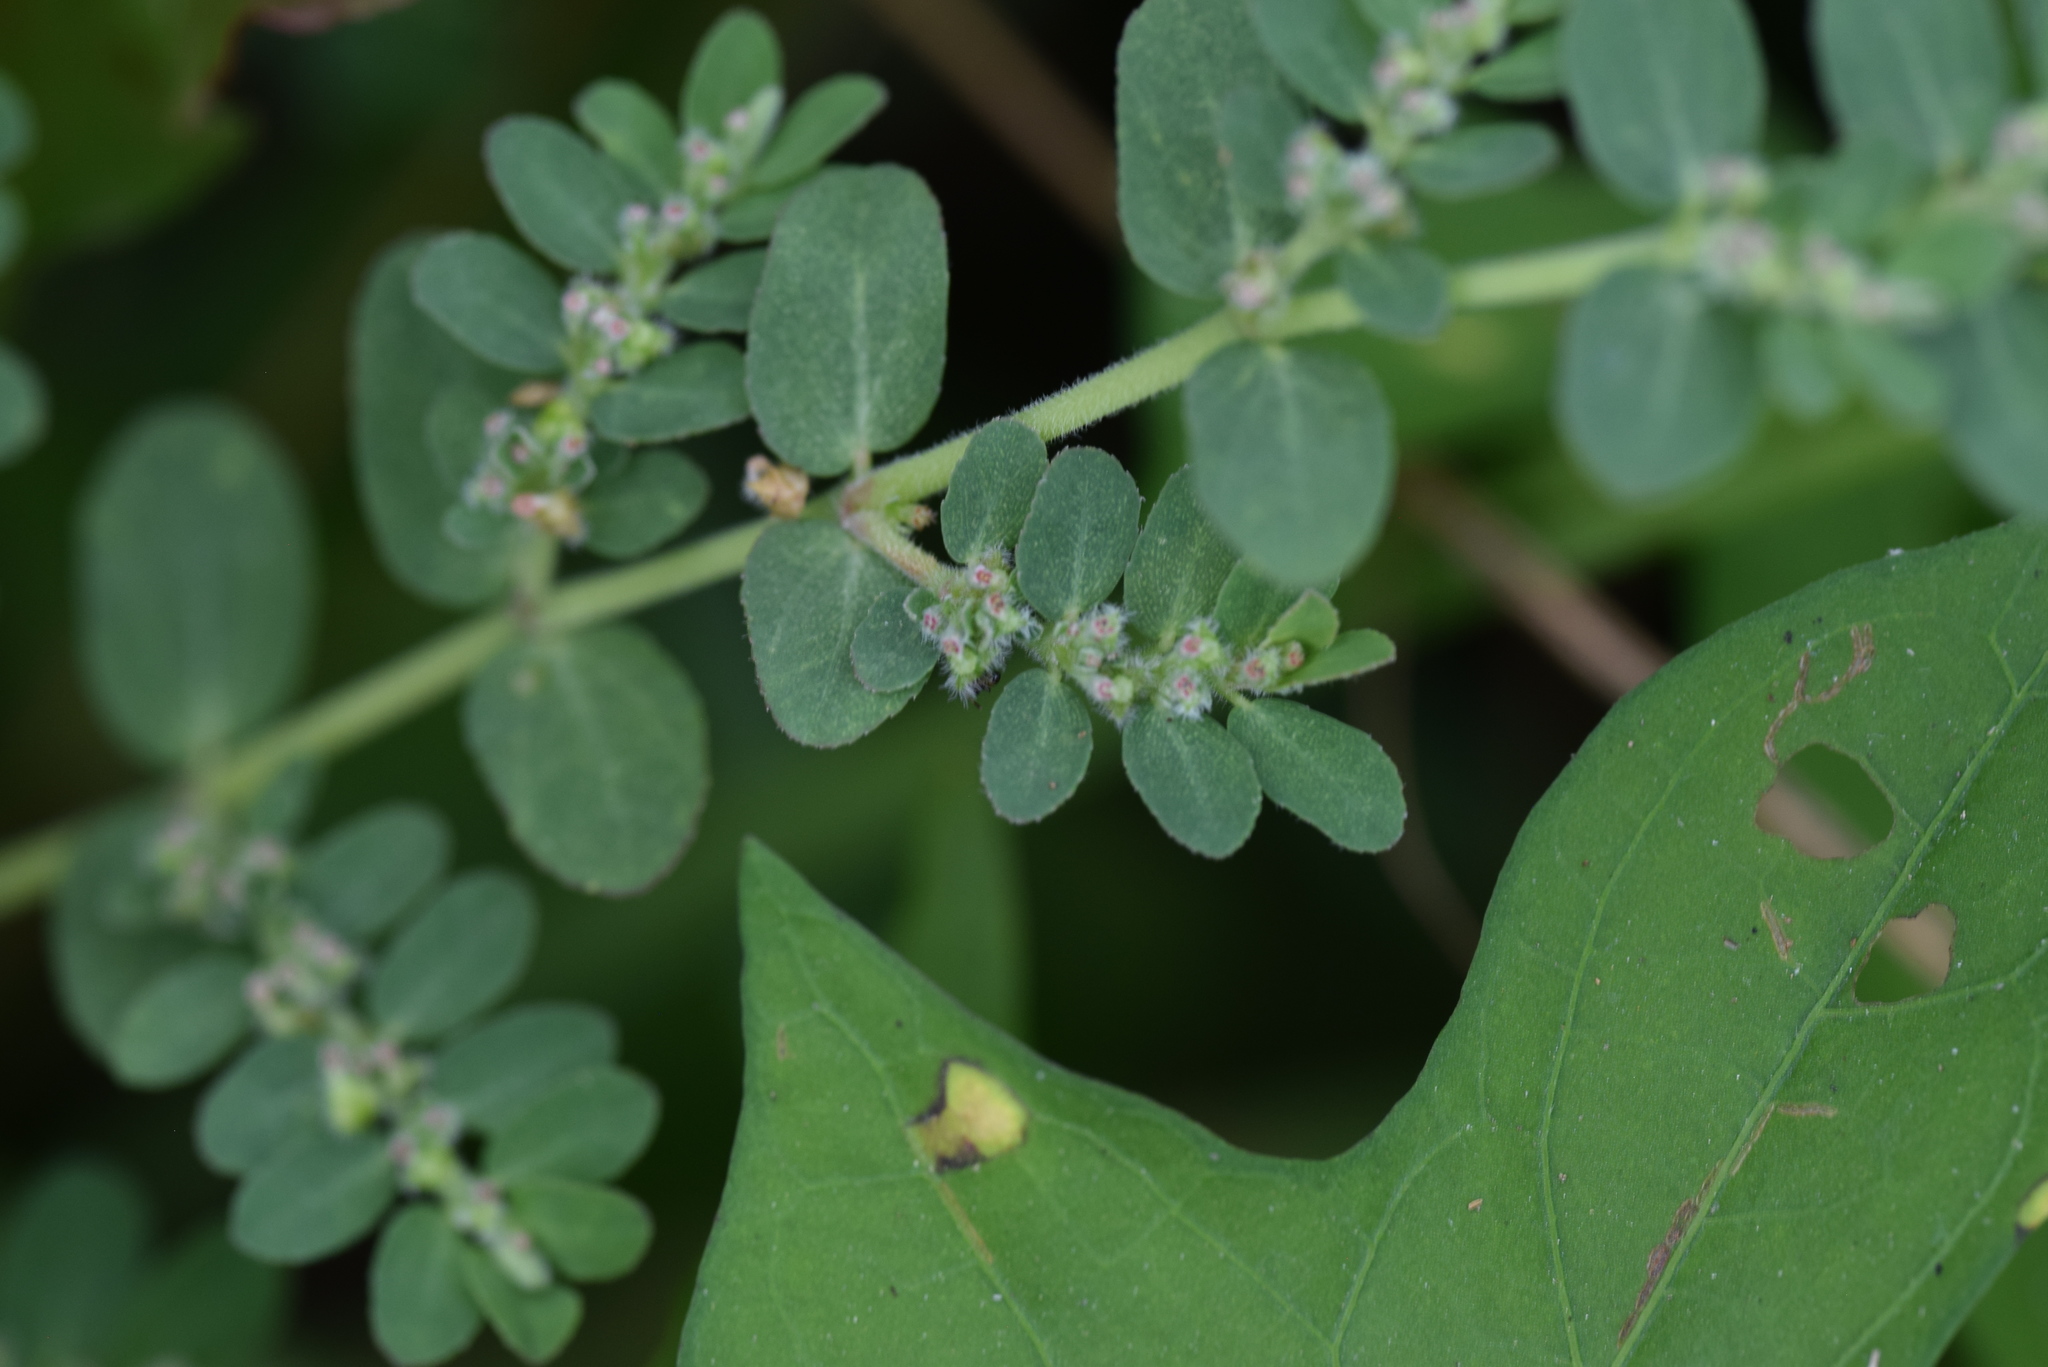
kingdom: Plantae
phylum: Tracheophyta
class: Magnoliopsida
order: Malpighiales
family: Euphorbiaceae
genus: Euphorbia
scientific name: Euphorbia prostrata
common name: Prostrate sandmat
